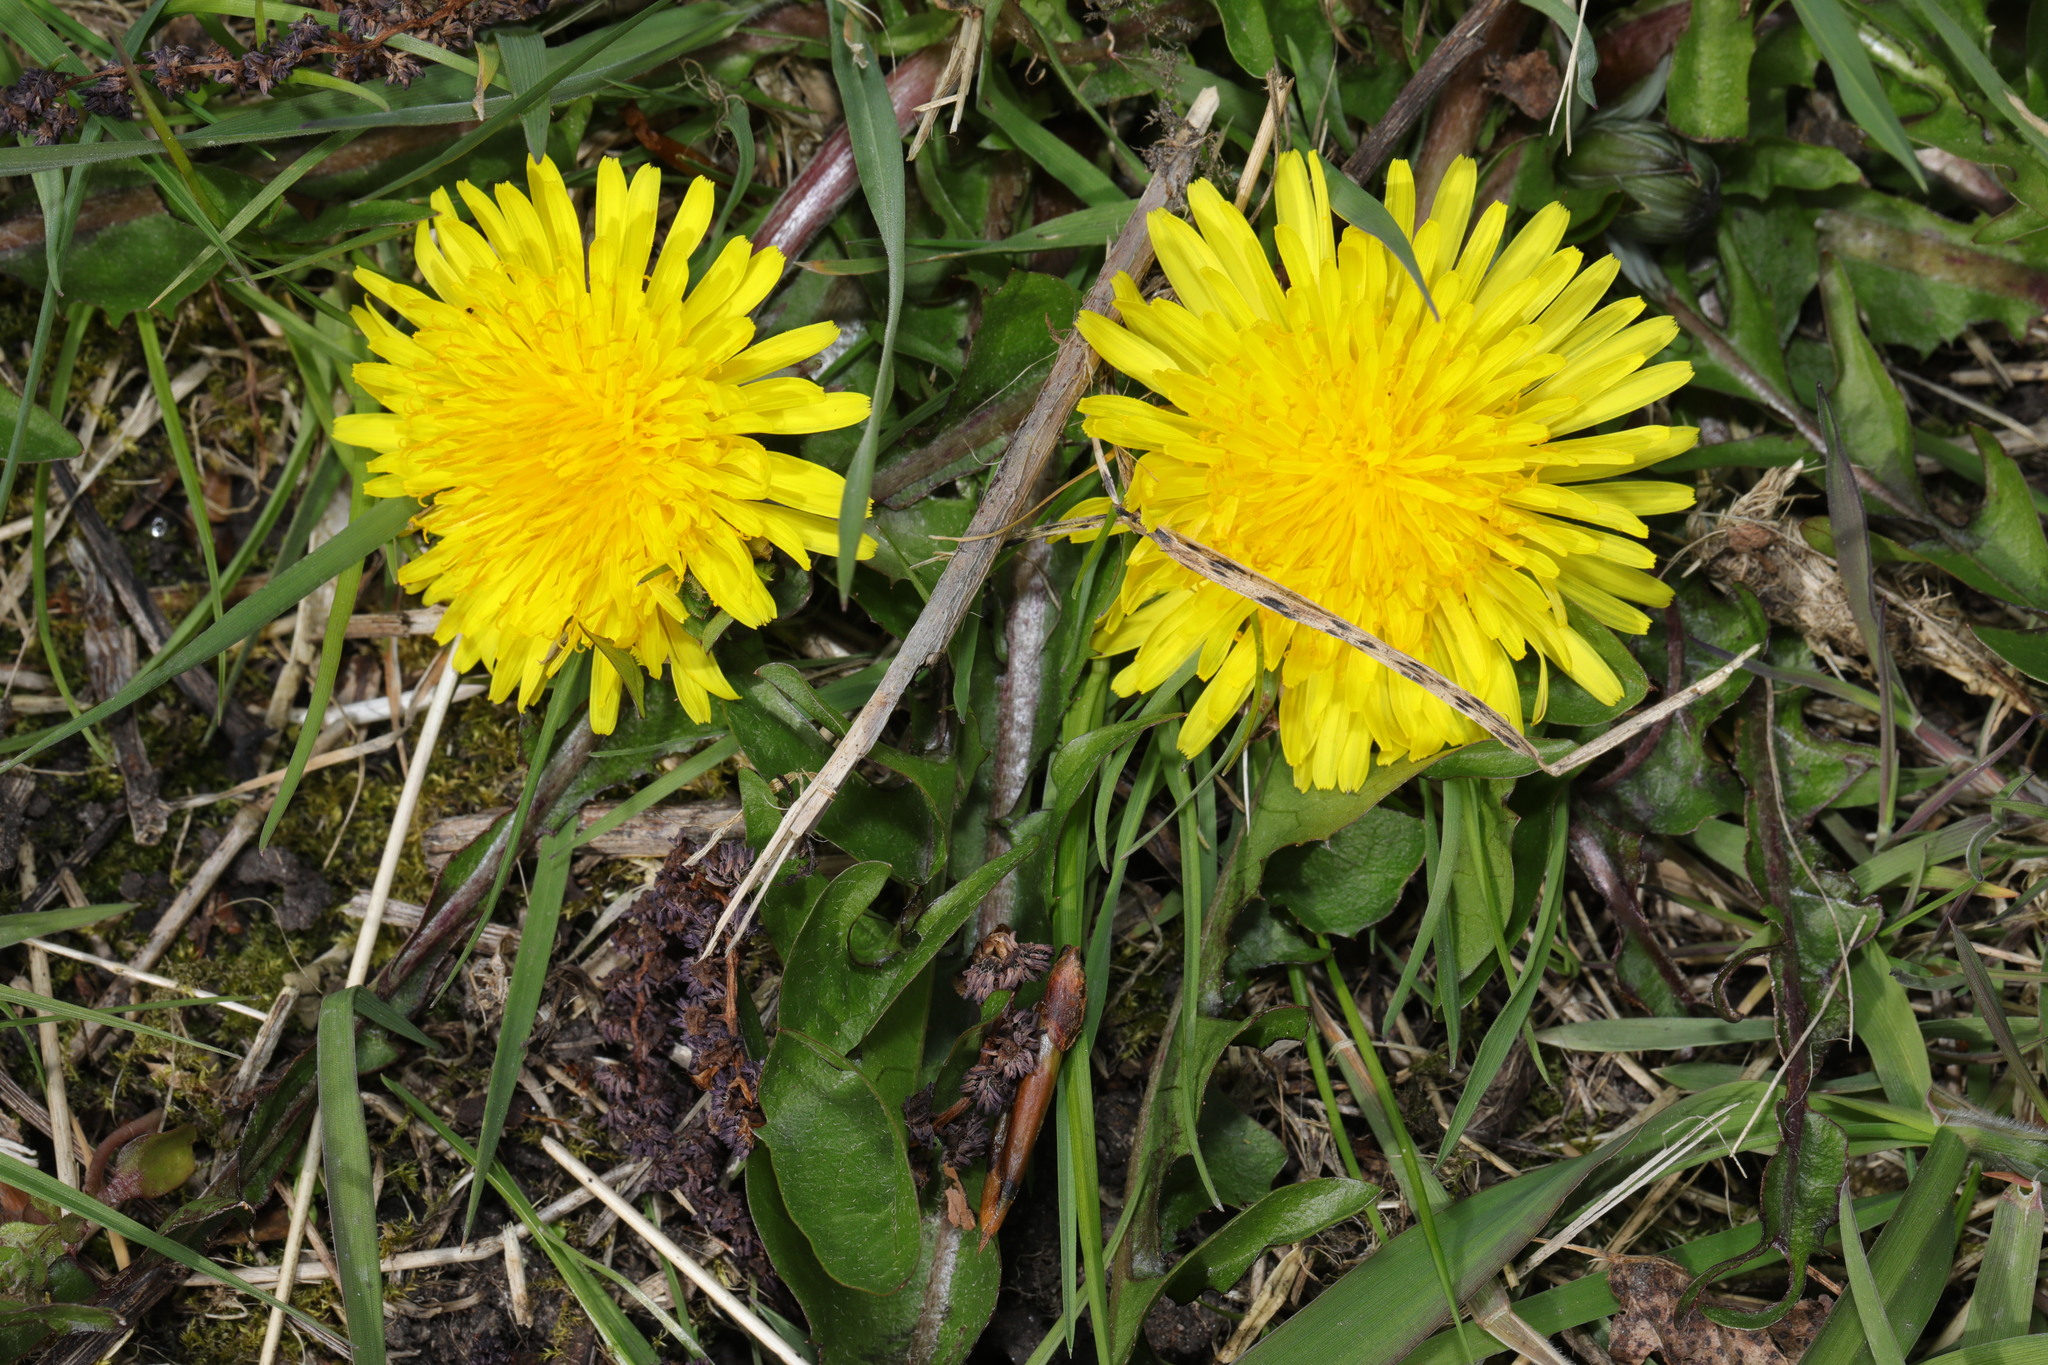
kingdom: Plantae
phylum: Tracheophyta
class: Magnoliopsida
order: Asterales
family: Asteraceae
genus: Taraxacum
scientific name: Taraxacum officinale
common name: Common dandelion
